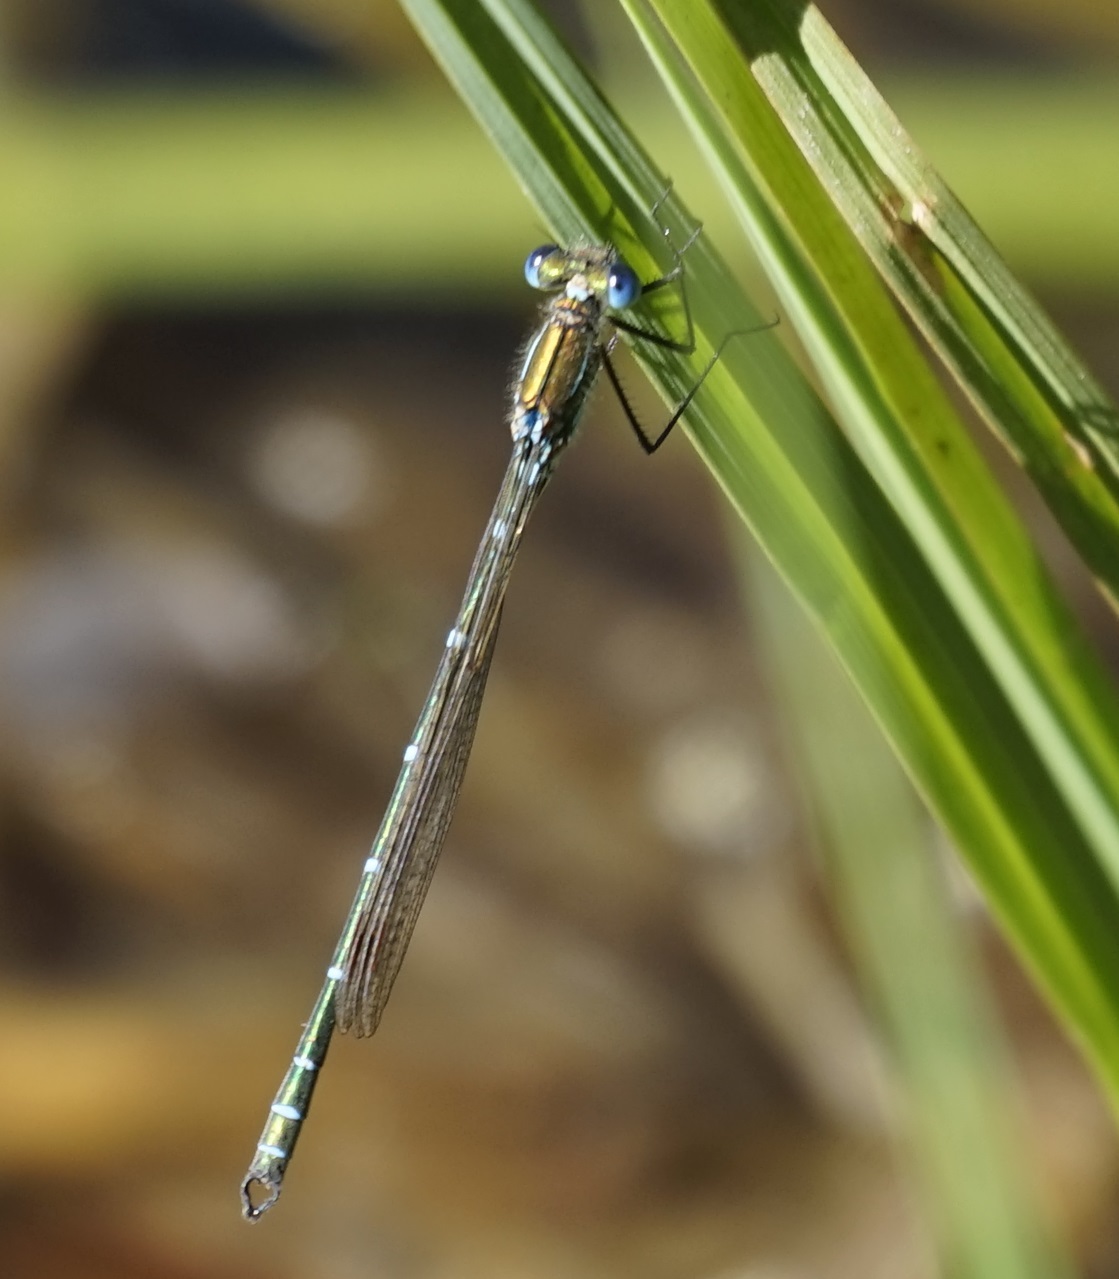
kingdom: Animalia
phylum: Arthropoda
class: Insecta
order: Odonata
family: Lestidae
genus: Austrolestes
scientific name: Austrolestes cingulatus
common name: Metallic ringtail
